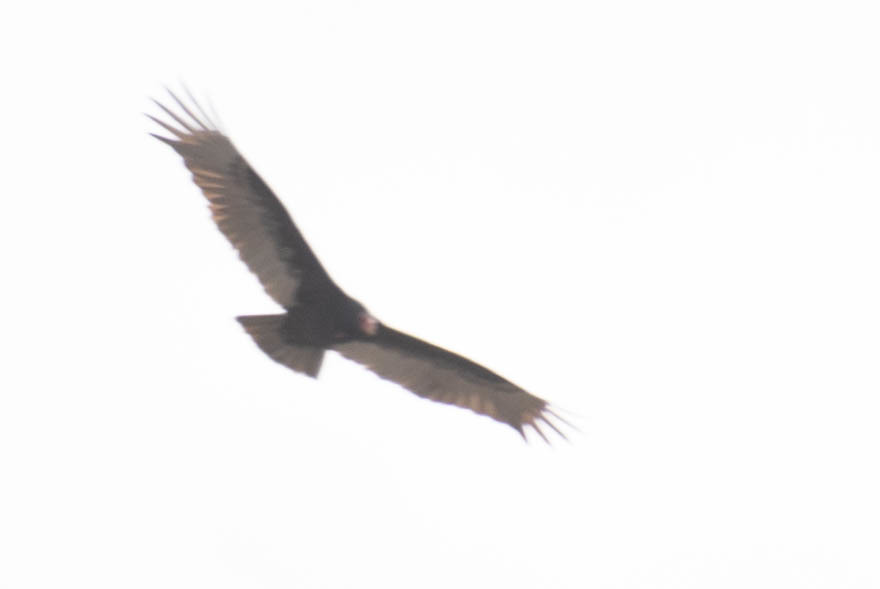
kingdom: Animalia
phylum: Chordata
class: Aves
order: Accipitriformes
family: Cathartidae
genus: Cathartes
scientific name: Cathartes aura
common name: Turkey vulture
